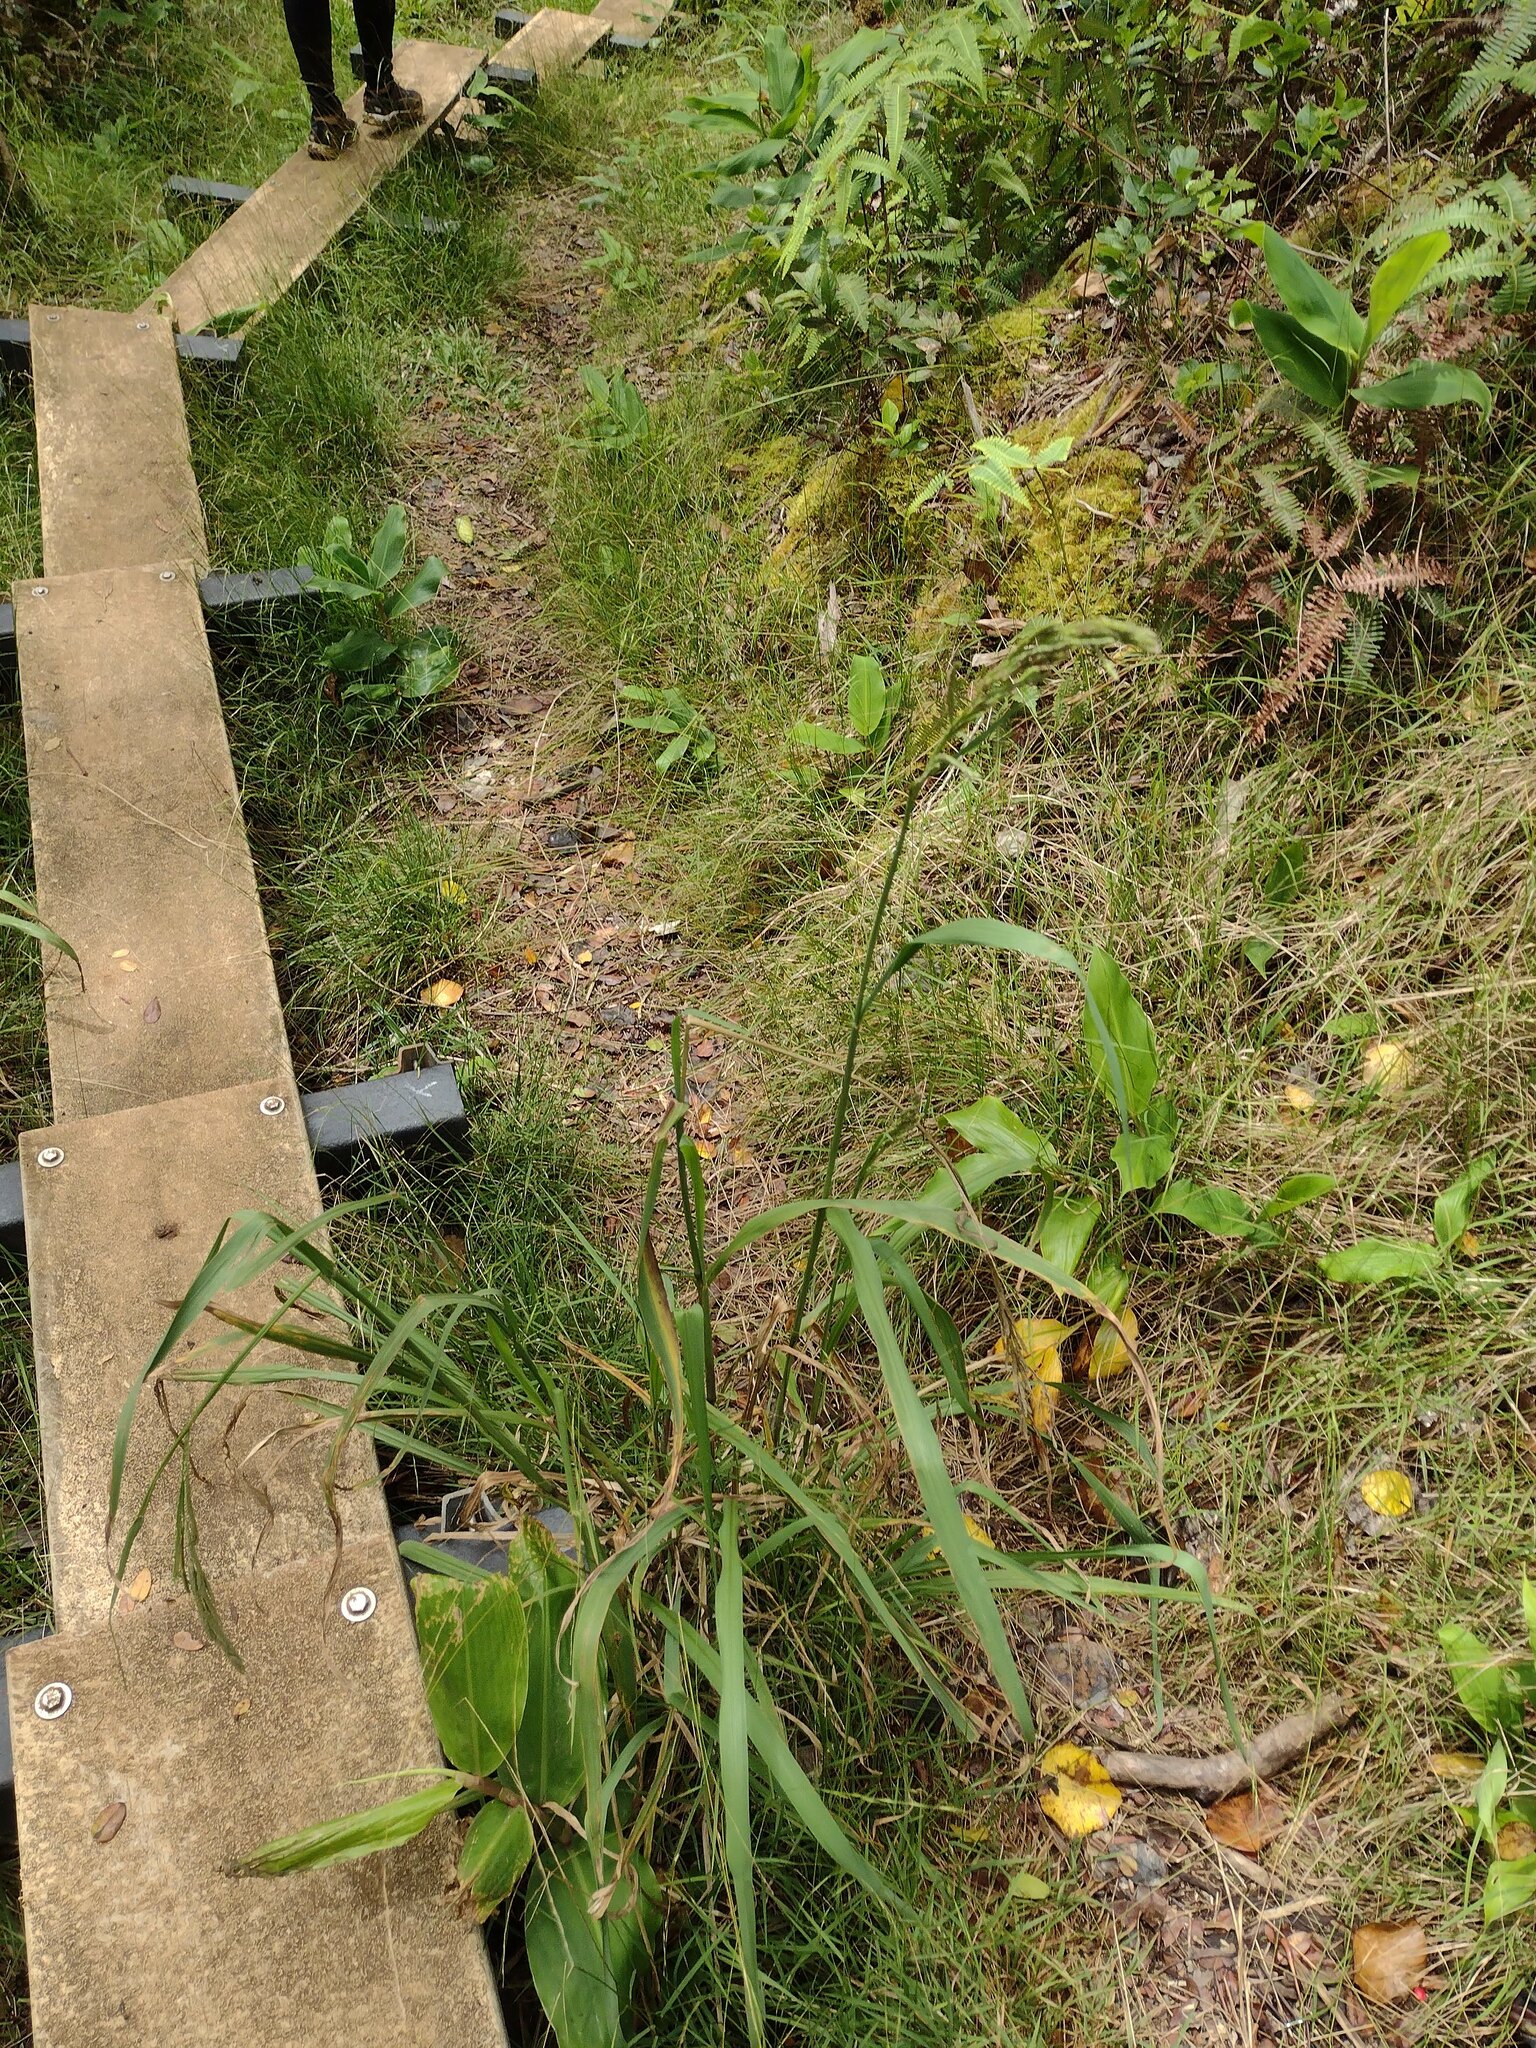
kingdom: Plantae
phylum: Tracheophyta
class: Liliopsida
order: Poales
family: Poaceae
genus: Paspalum
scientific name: Paspalum urvillei
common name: Vasey's grass
